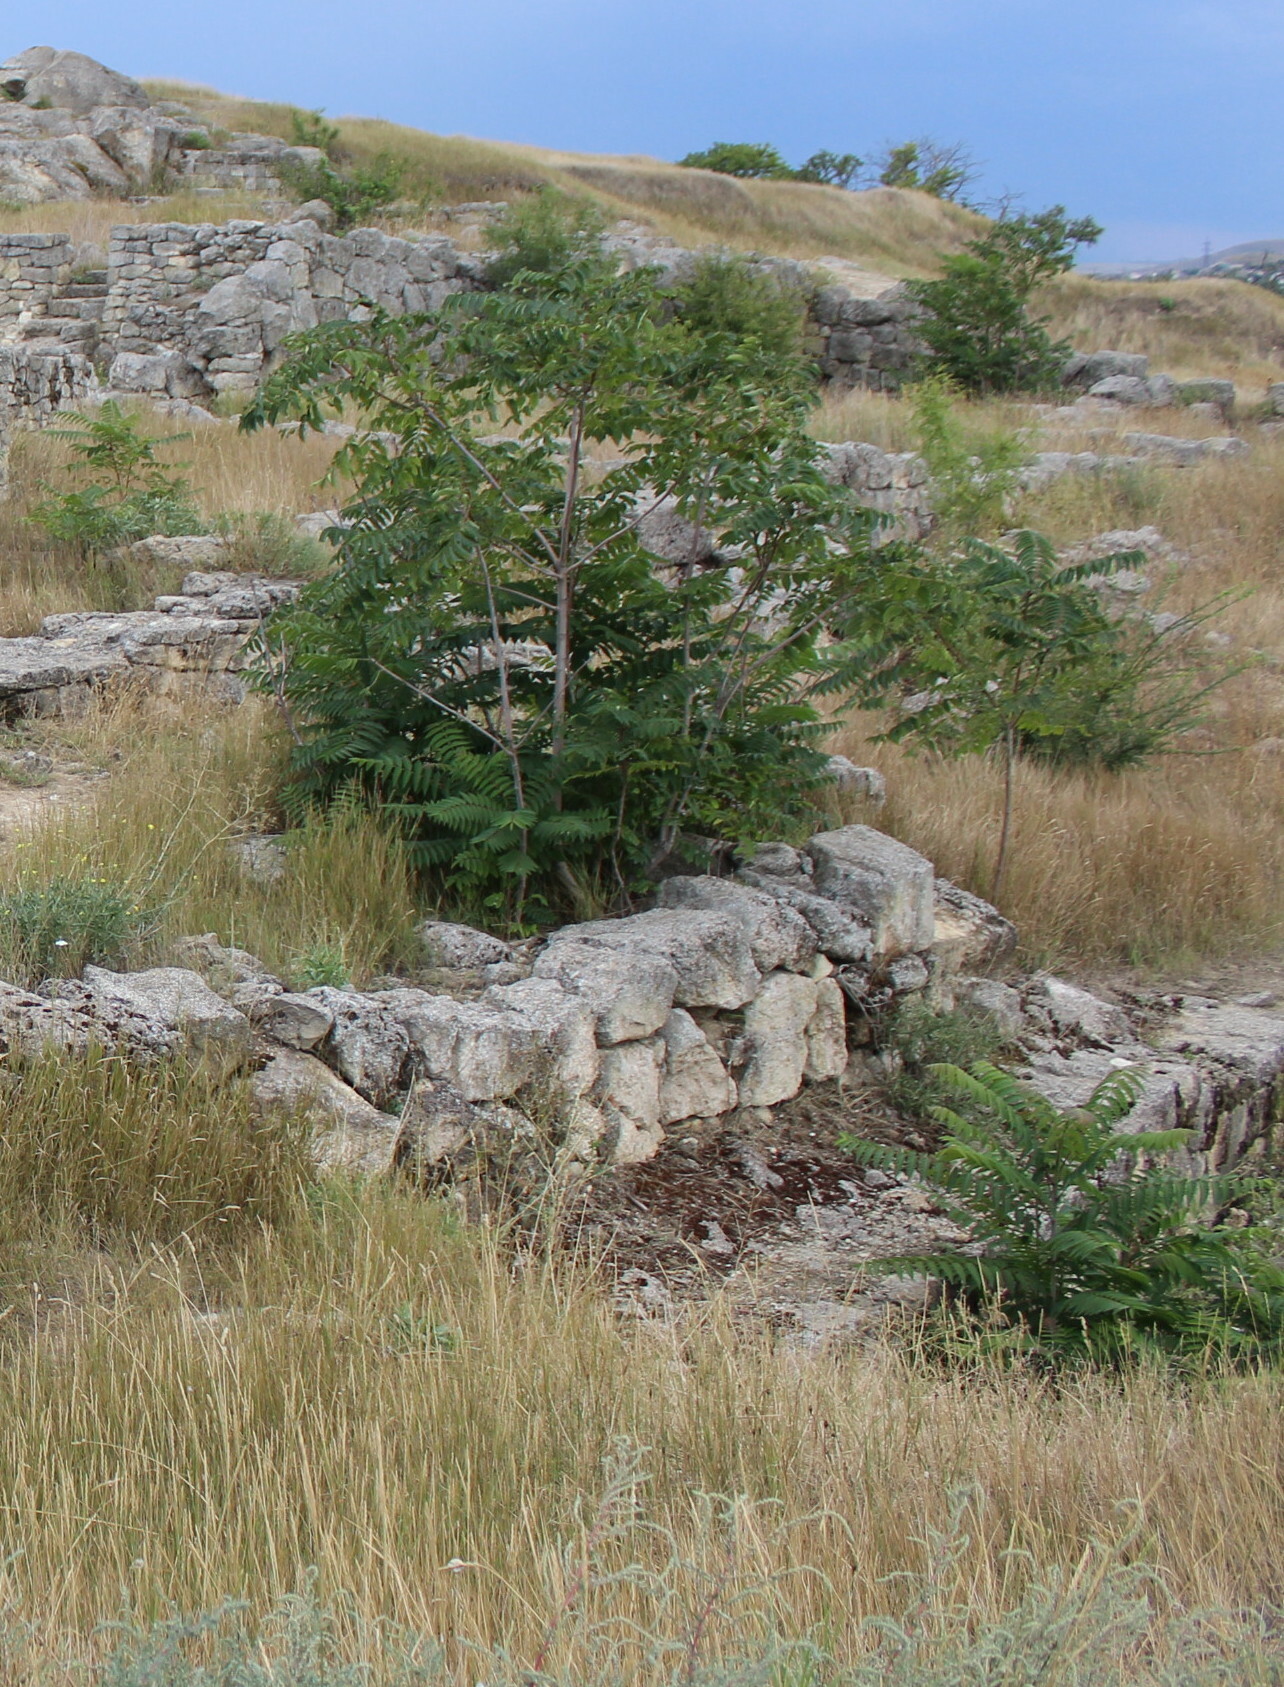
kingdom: Plantae
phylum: Tracheophyta
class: Magnoliopsida
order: Sapindales
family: Simaroubaceae
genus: Ailanthus
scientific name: Ailanthus altissima
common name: Tree-of-heaven
